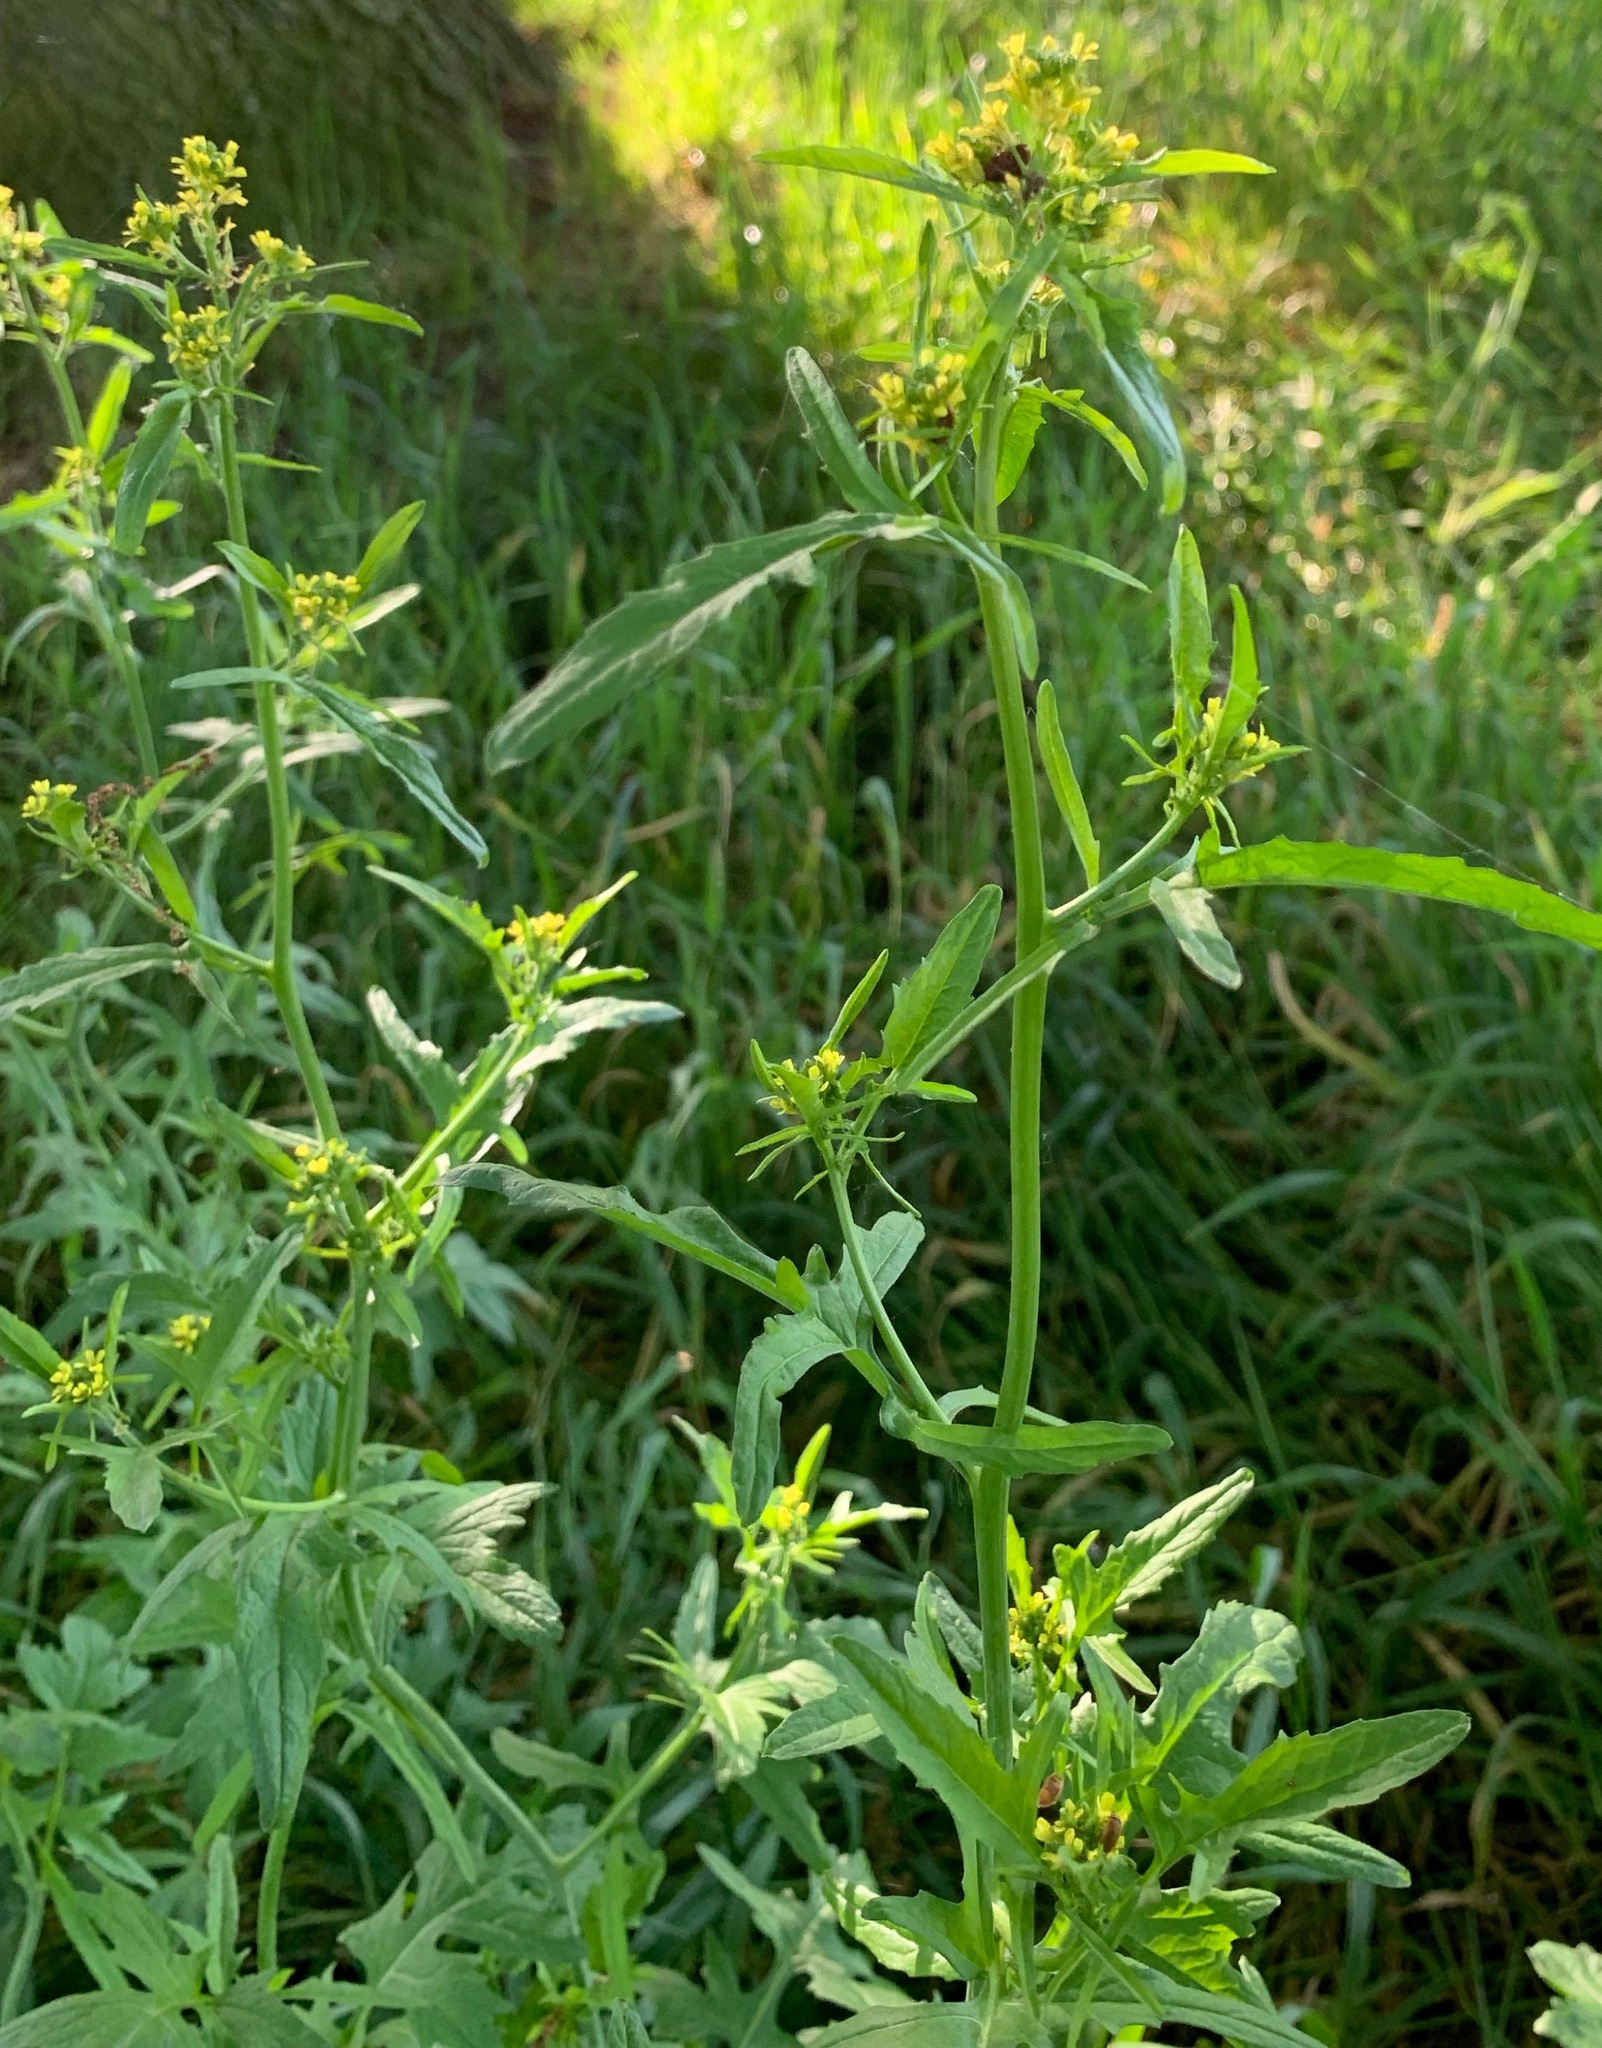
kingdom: Plantae
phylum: Tracheophyta
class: Magnoliopsida
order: Brassicales
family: Brassicaceae
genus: Sisymbrium
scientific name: Sisymbrium officinale
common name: Hedge mustard
